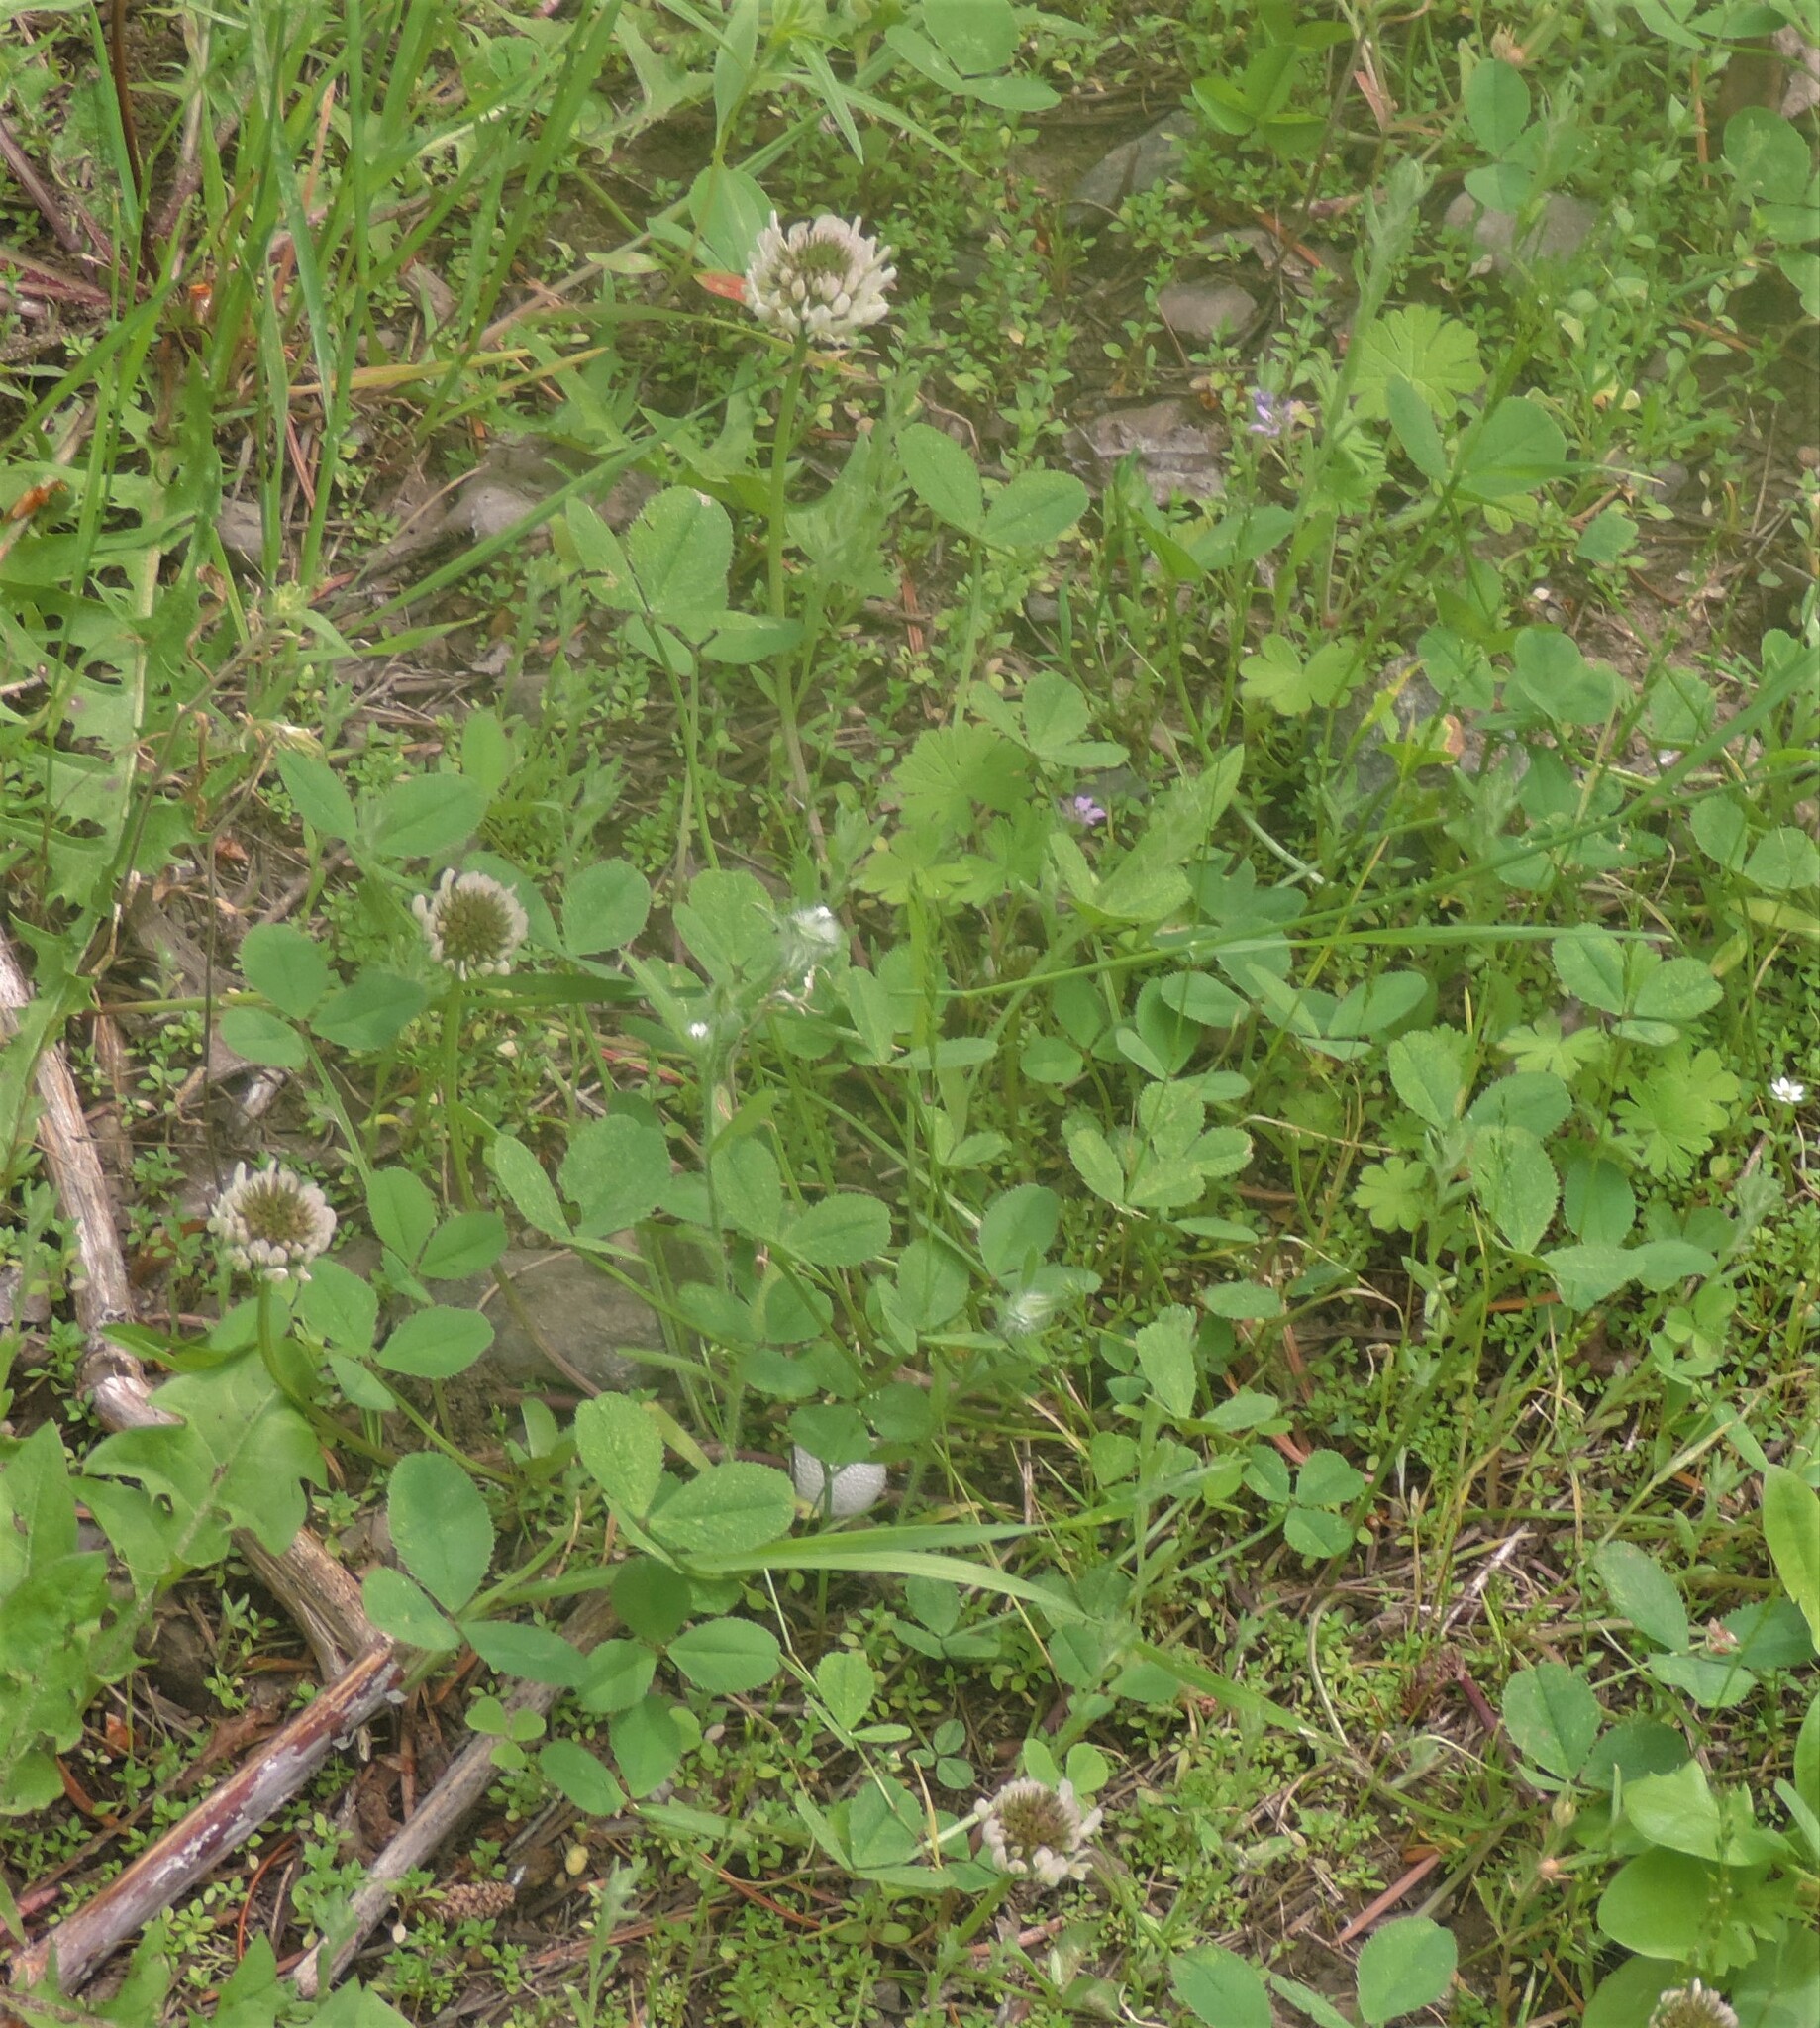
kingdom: Plantae
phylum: Tracheophyta
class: Magnoliopsida
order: Fabales
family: Fabaceae
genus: Trifolium
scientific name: Trifolium repens
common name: White clover
